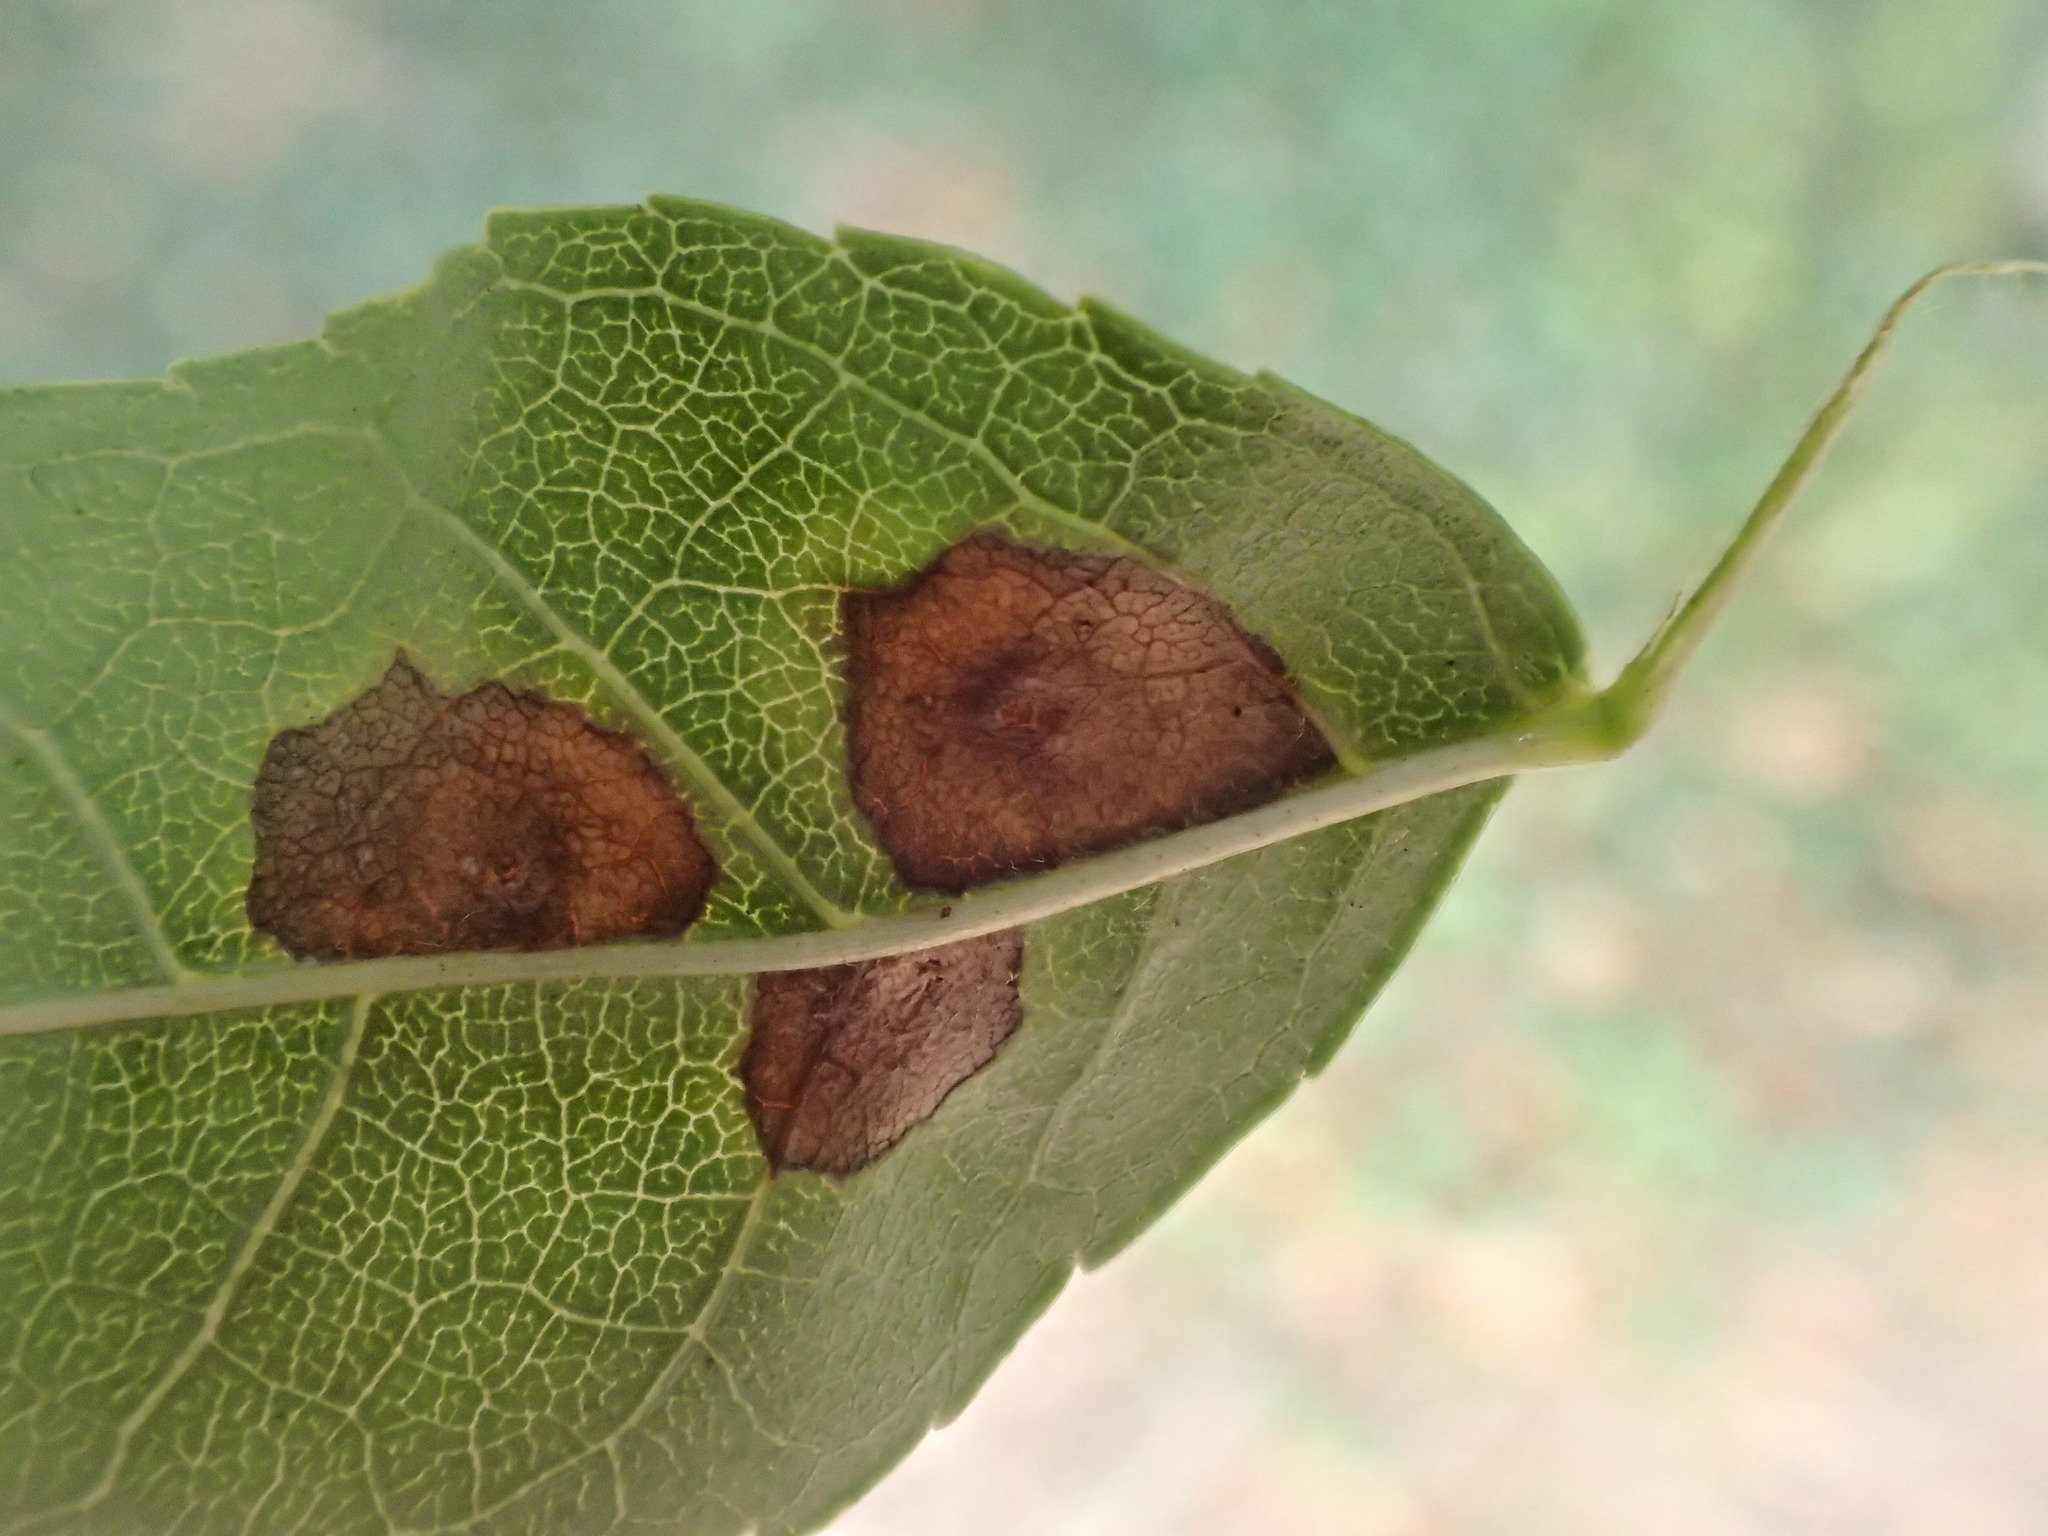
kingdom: Animalia
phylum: Arthropoda
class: Insecta
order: Diptera
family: Cecidomyiidae
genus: Dasineura
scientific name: Dasineura fraxinea
